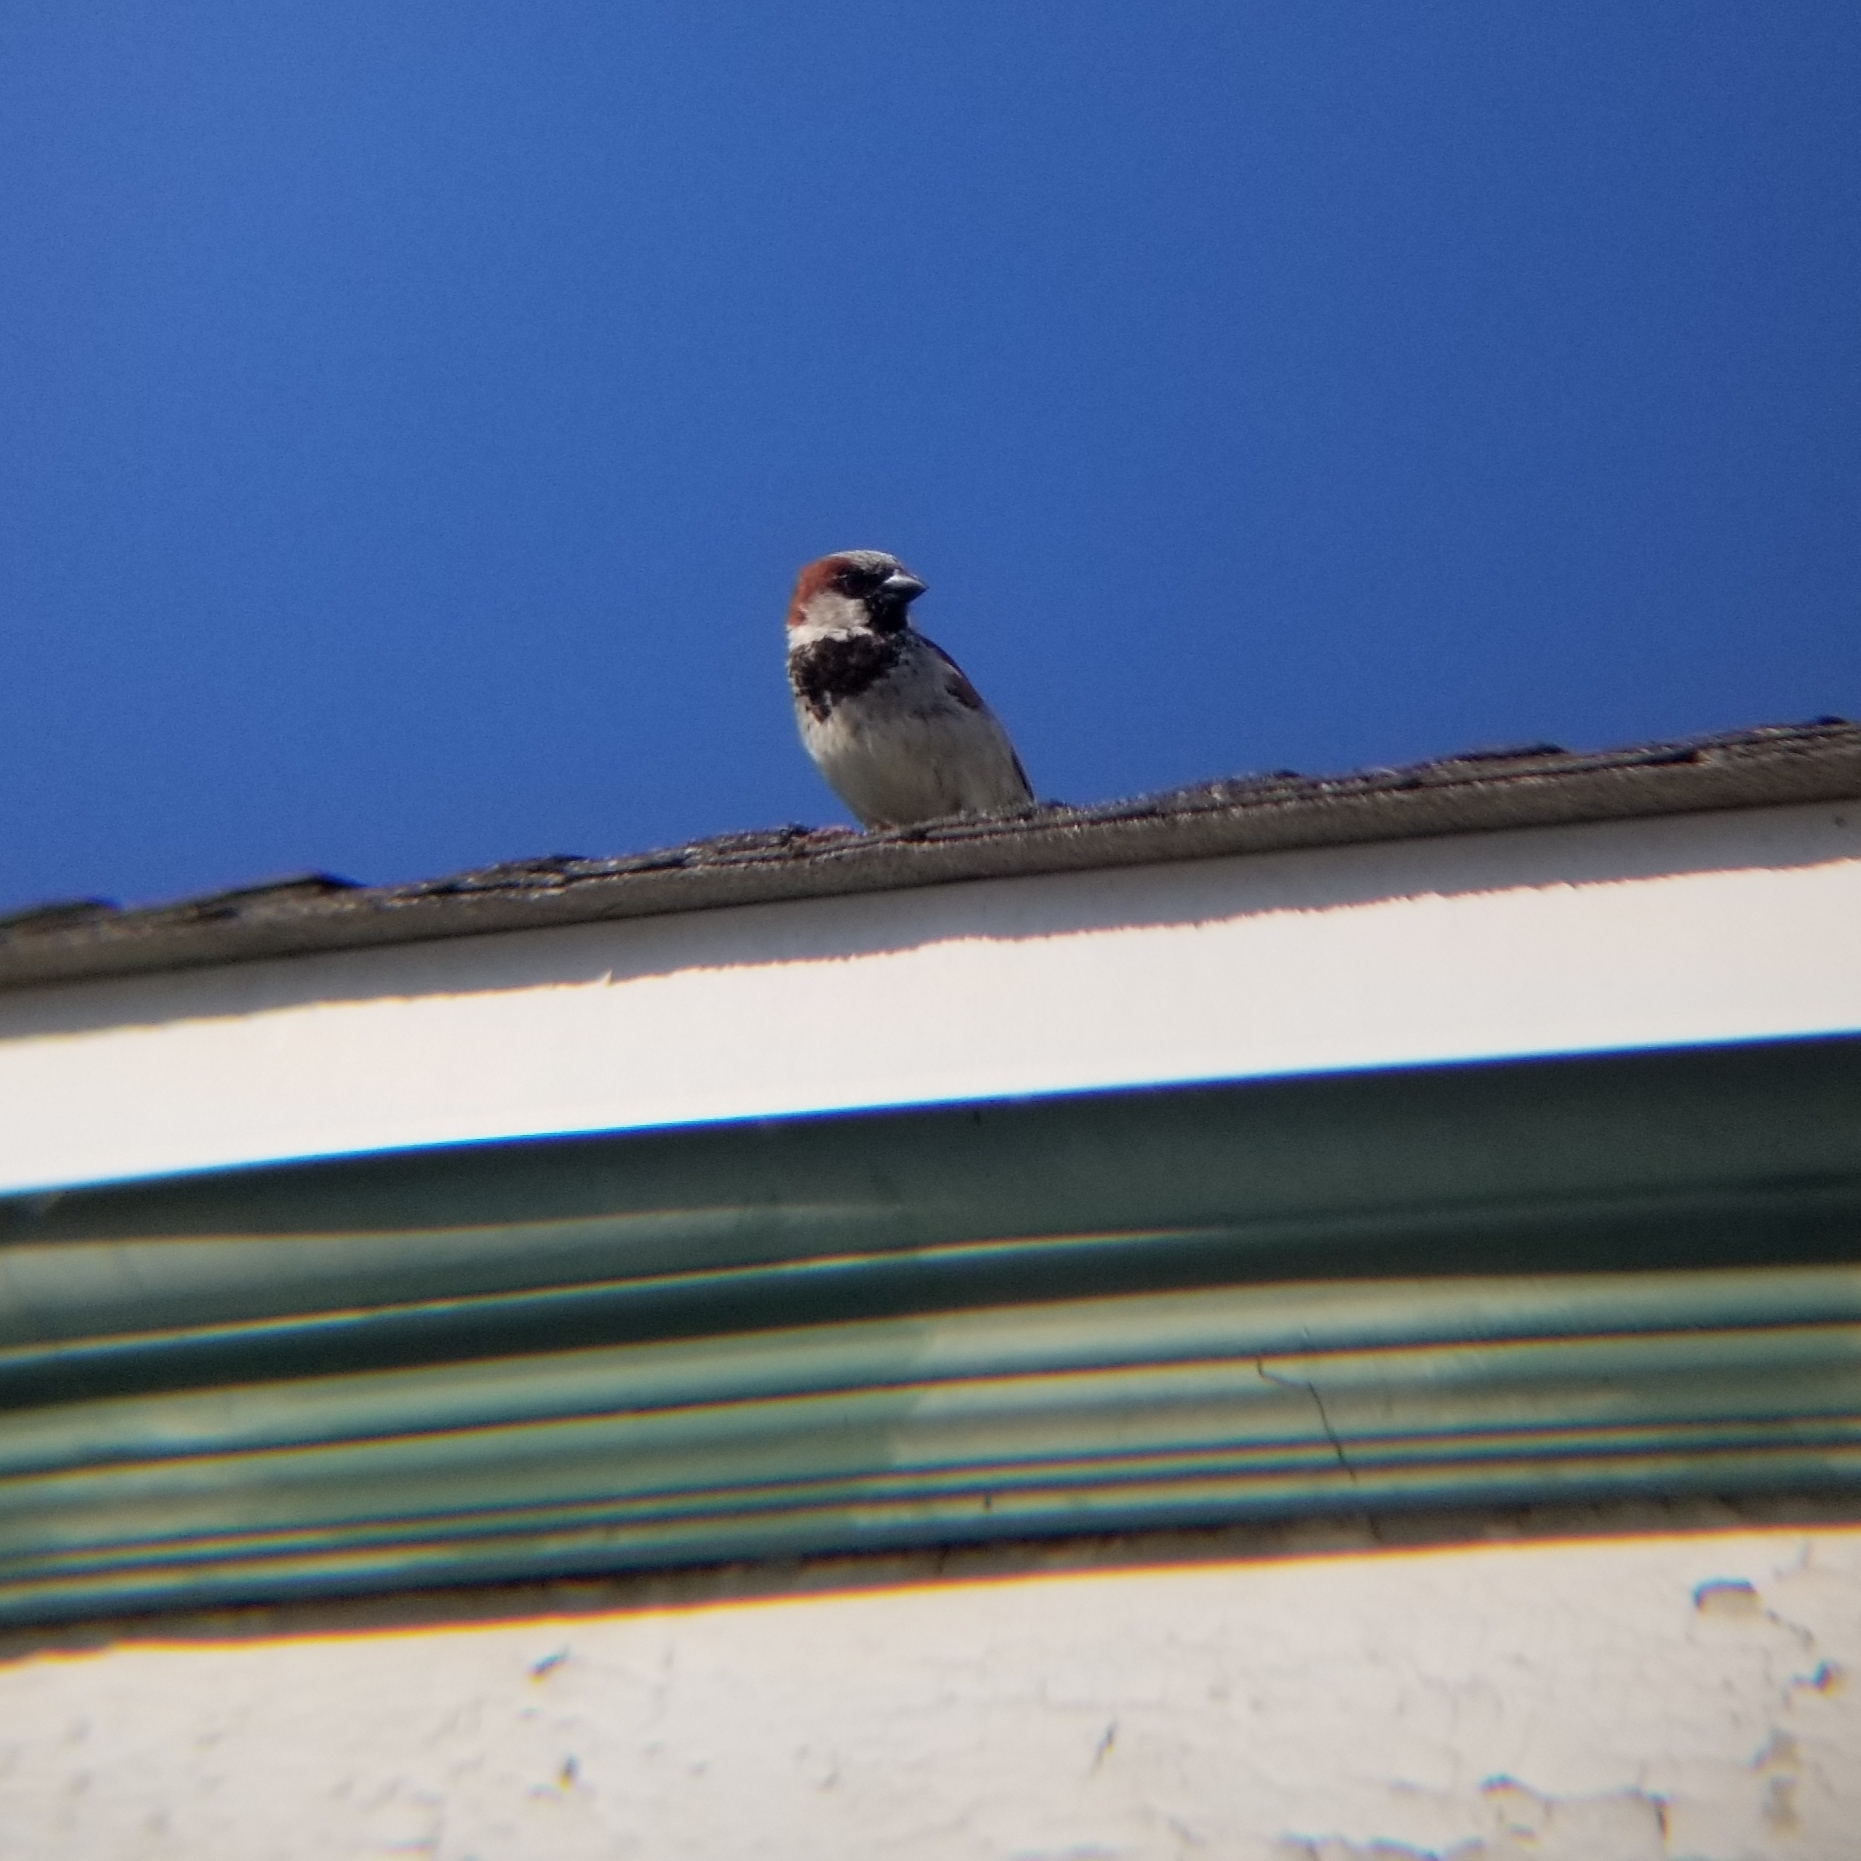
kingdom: Animalia
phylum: Chordata
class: Aves
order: Passeriformes
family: Passeridae
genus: Passer
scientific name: Passer domesticus
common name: House sparrow
